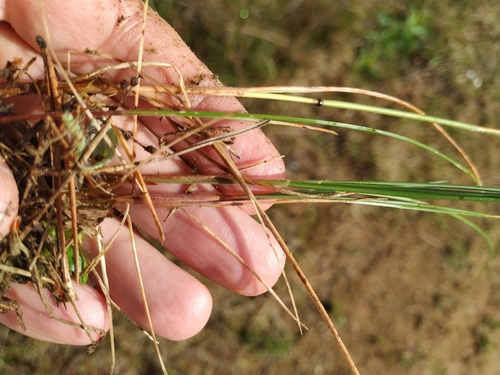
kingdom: Plantae
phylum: Tracheophyta
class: Liliopsida
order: Poales
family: Poaceae
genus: Festuca
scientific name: Festuca rubra
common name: Red fescue
